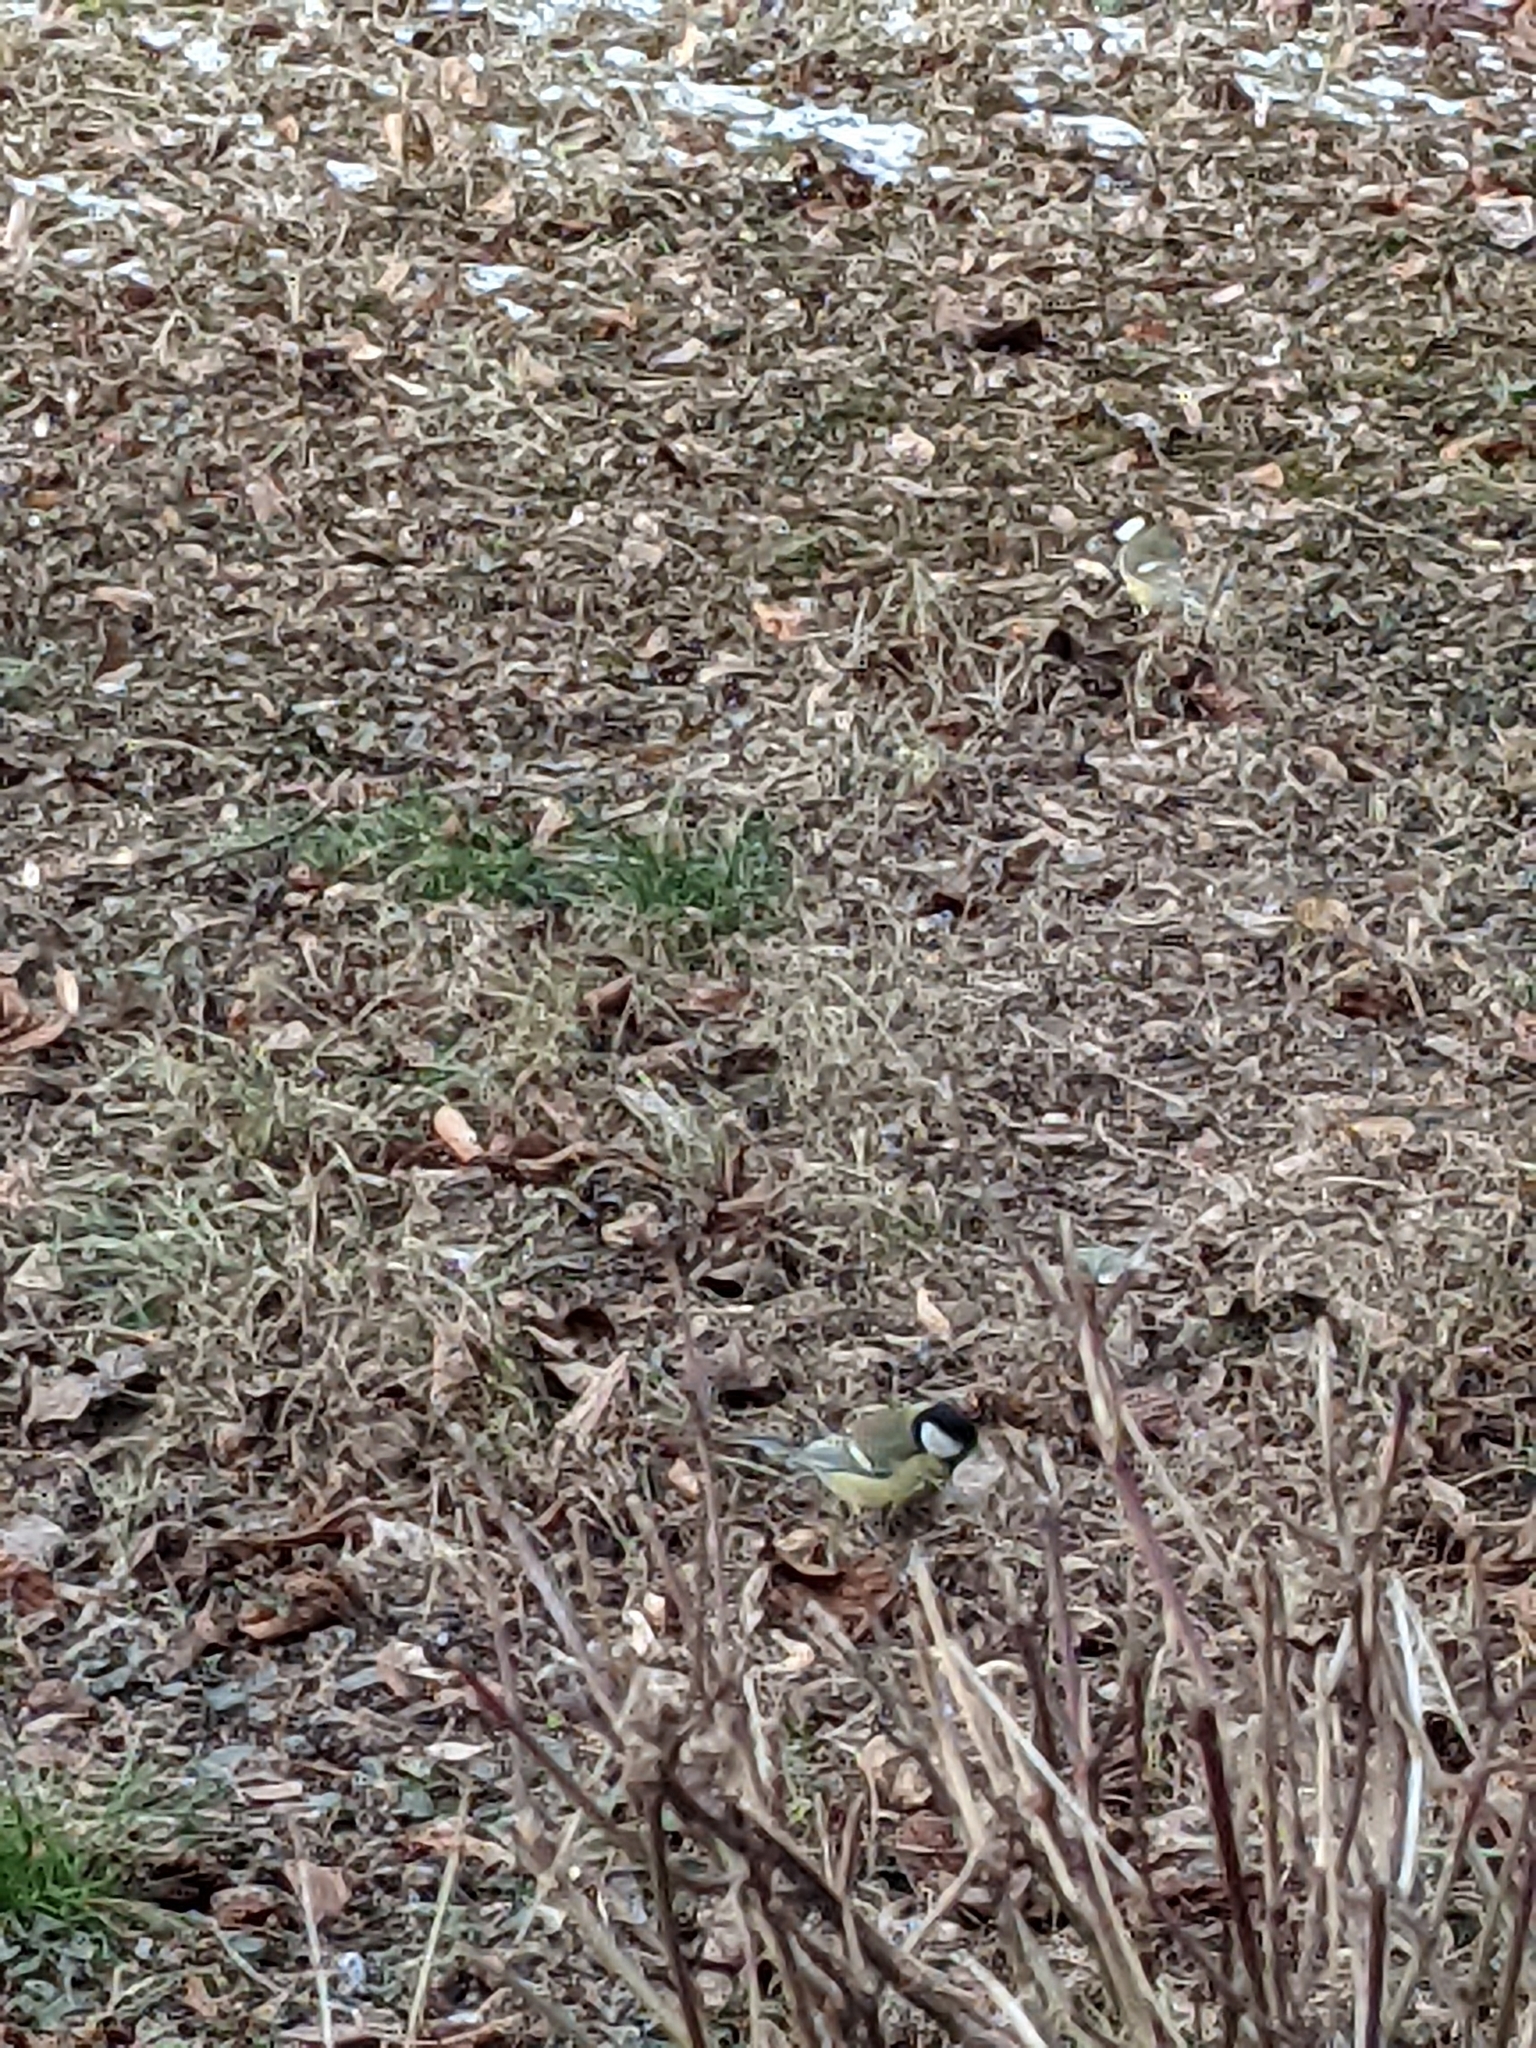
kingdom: Animalia
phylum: Chordata
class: Aves
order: Passeriformes
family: Paridae
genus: Parus
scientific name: Parus major
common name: Great tit
